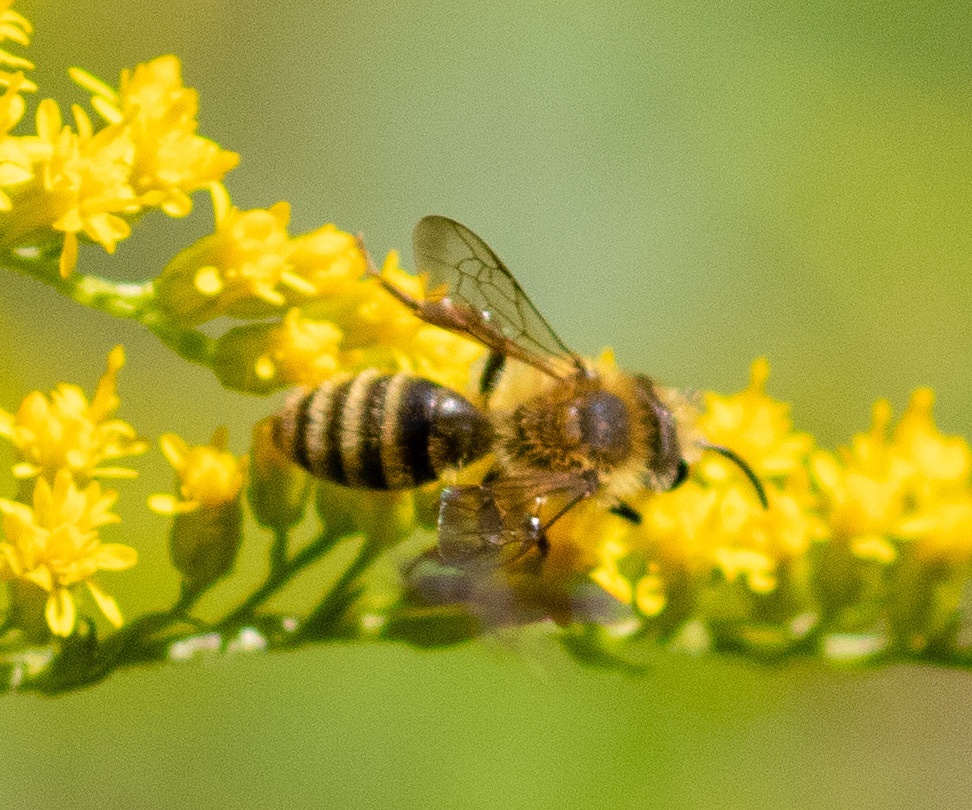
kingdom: Animalia
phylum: Arthropoda
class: Insecta
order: Hymenoptera
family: Andrenidae
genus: Andrena
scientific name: Andrena hirticincta
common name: Hairy-banded mining bee
